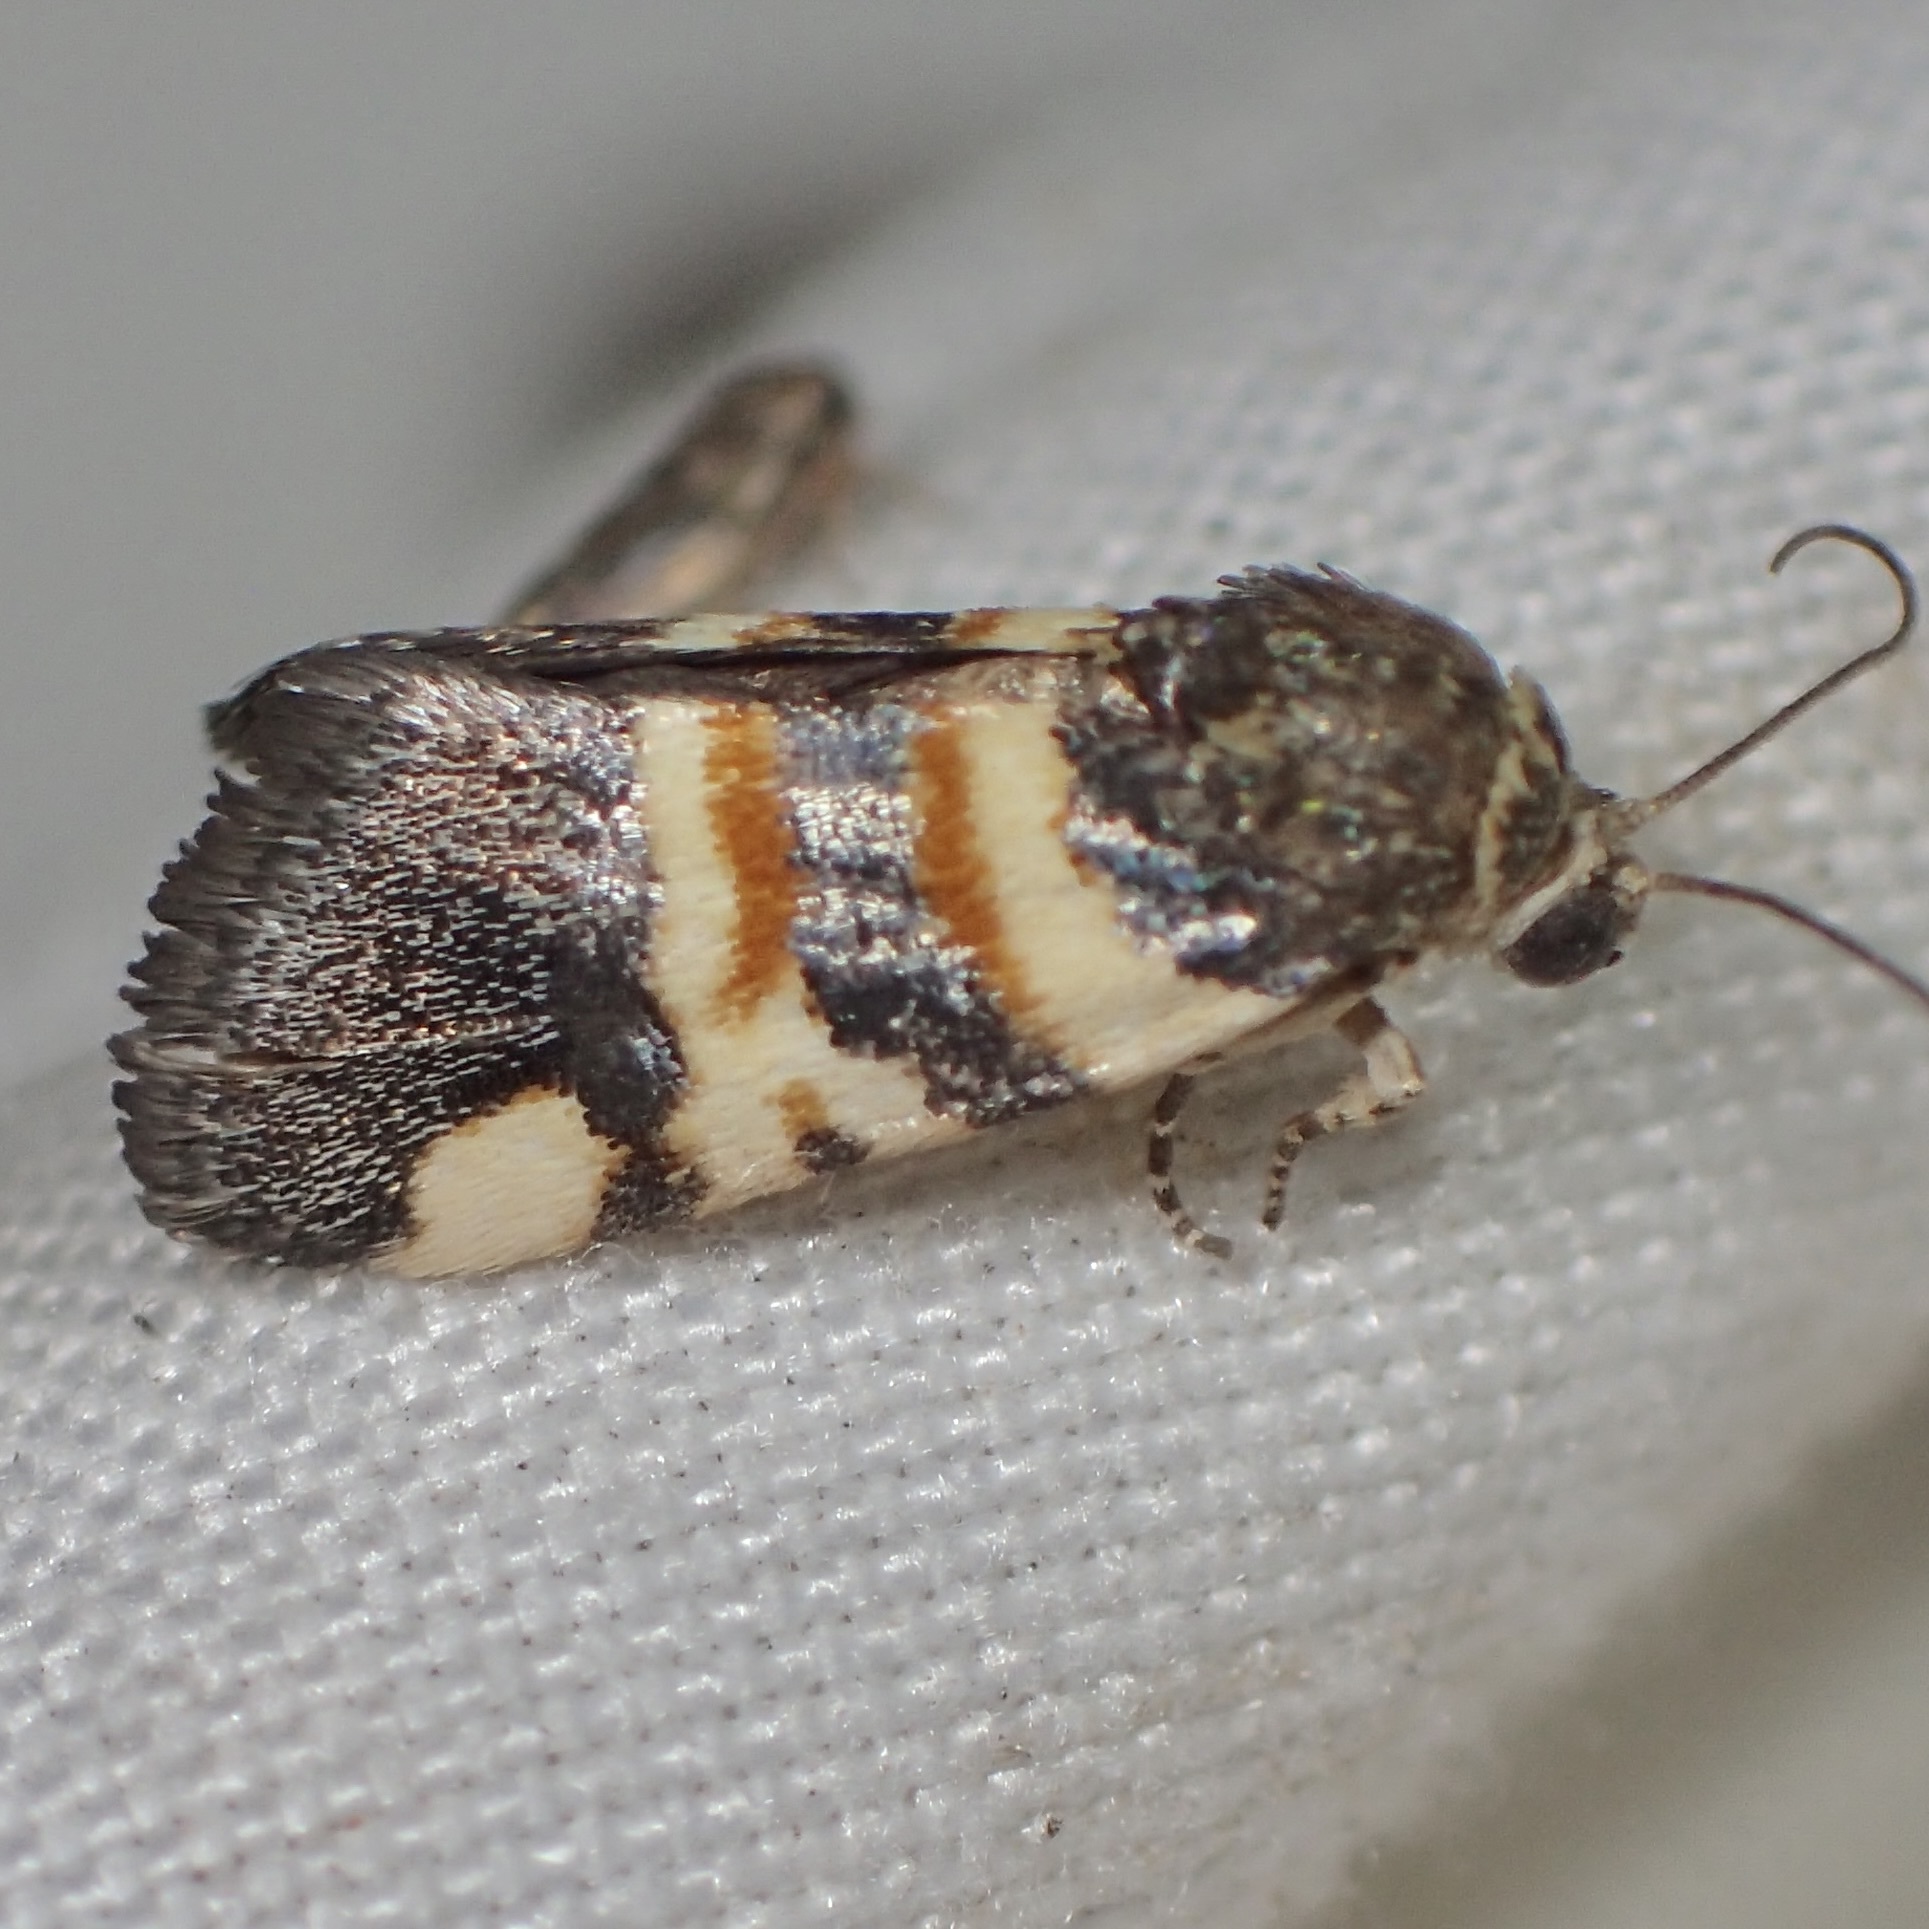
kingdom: Animalia
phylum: Arthropoda
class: Insecta
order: Lepidoptera
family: Noctuidae
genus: Spragueia
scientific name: Spragueia funeralis
